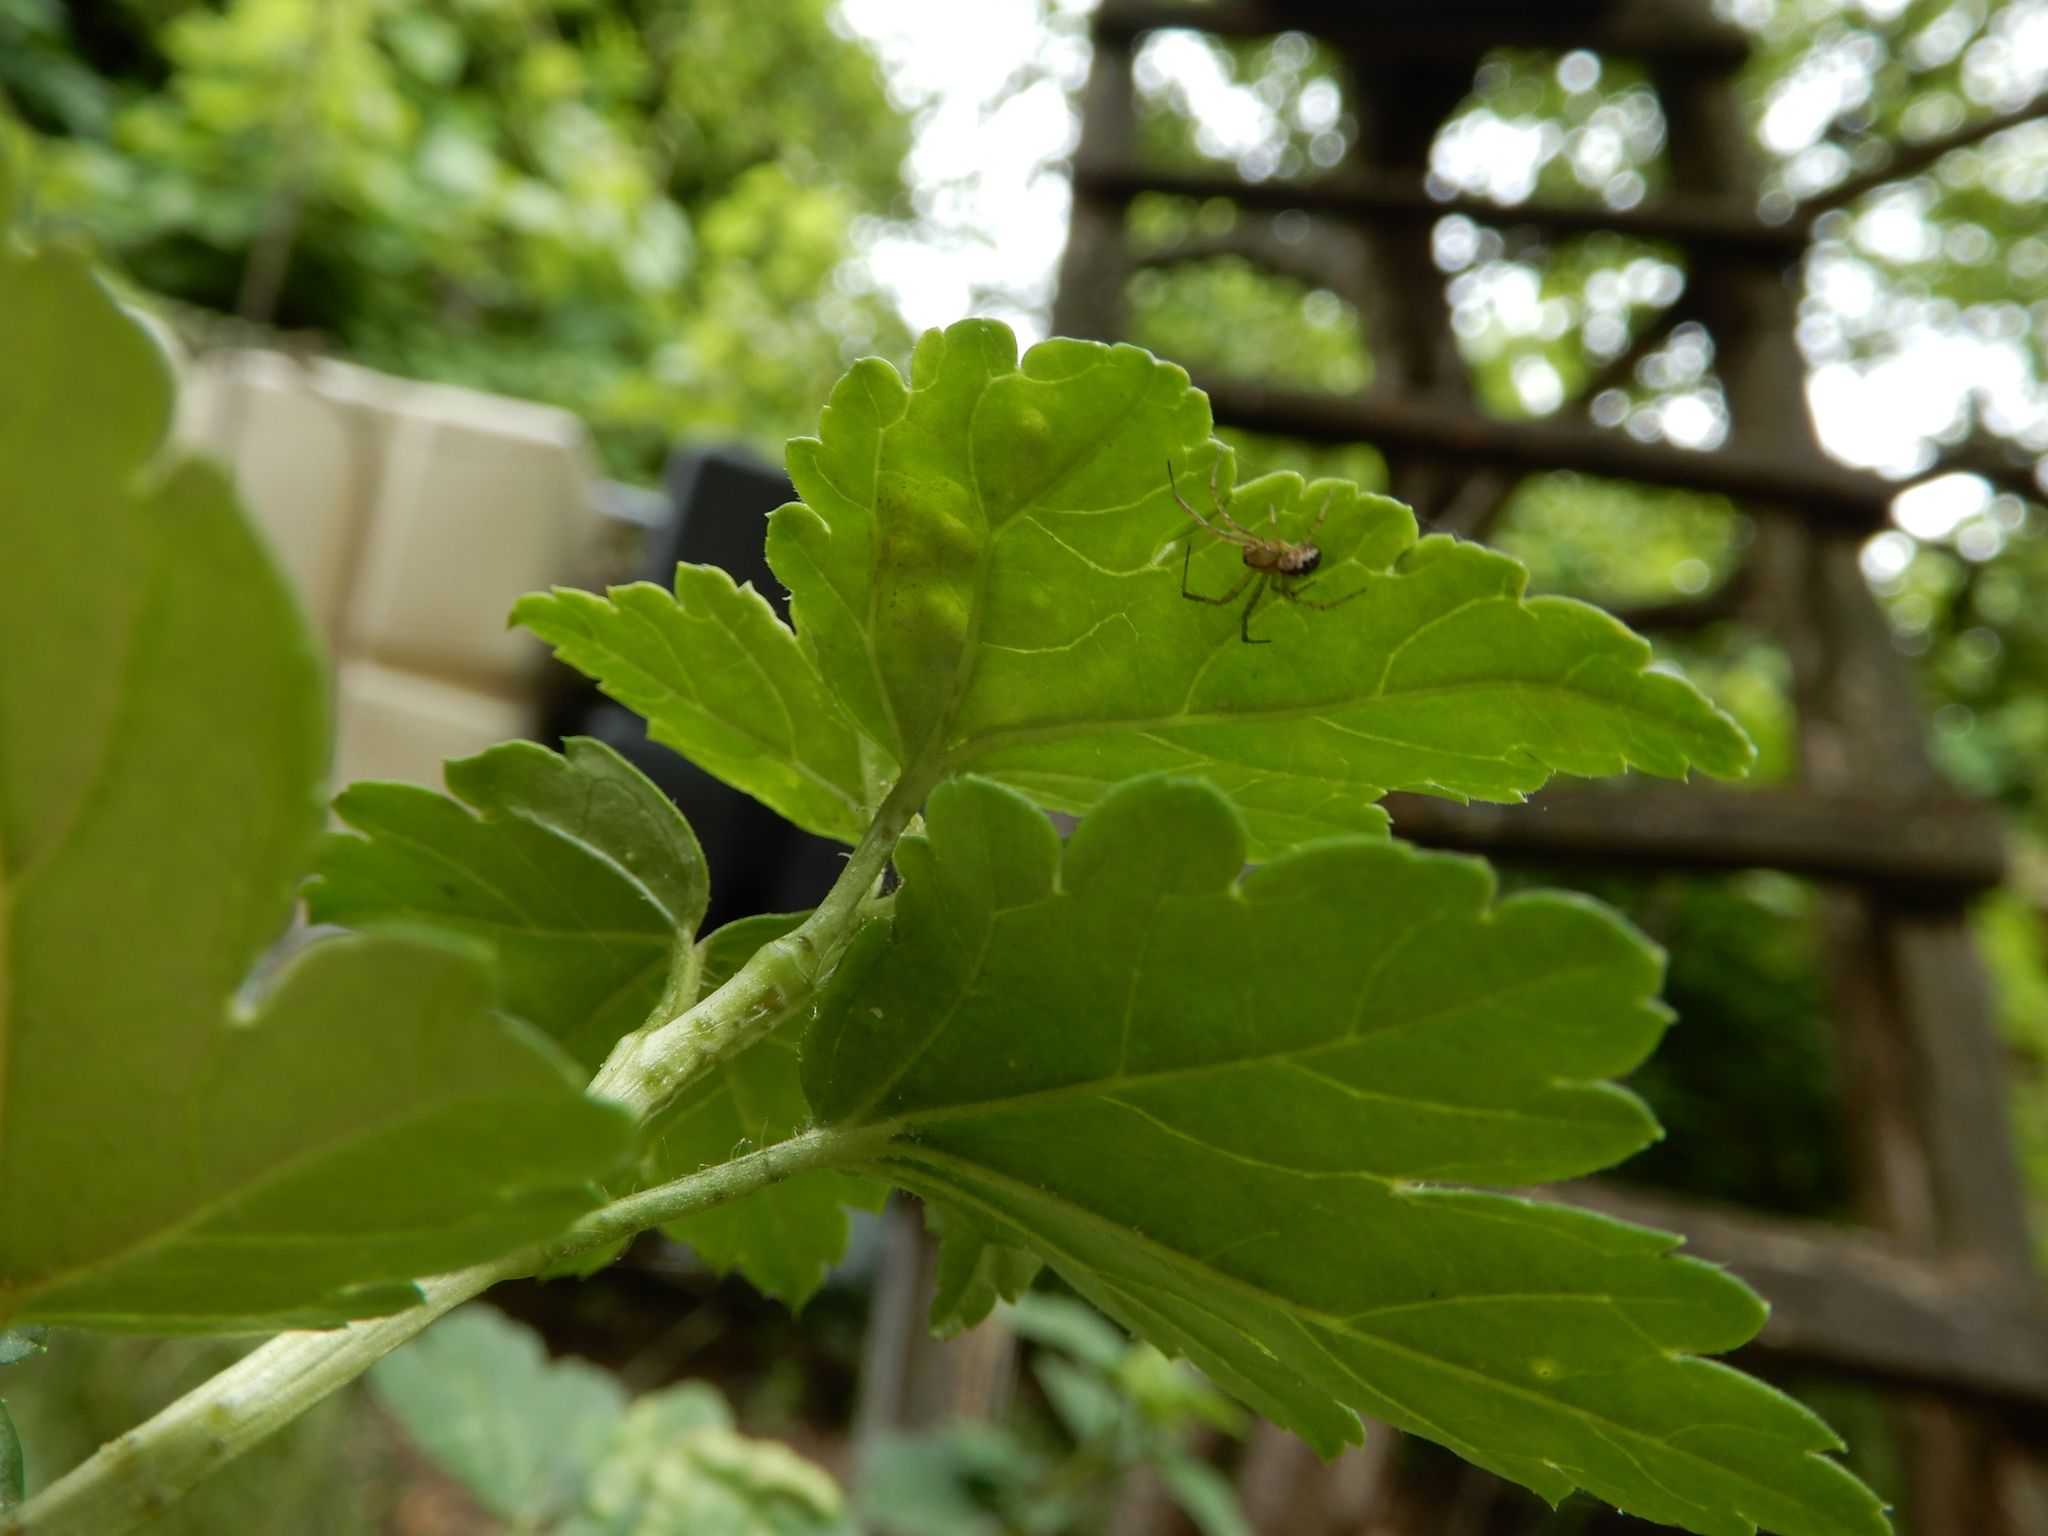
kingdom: Animalia
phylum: Arthropoda
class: Arachnida
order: Araneae
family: Araneidae
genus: Mangora
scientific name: Mangora acalypha
